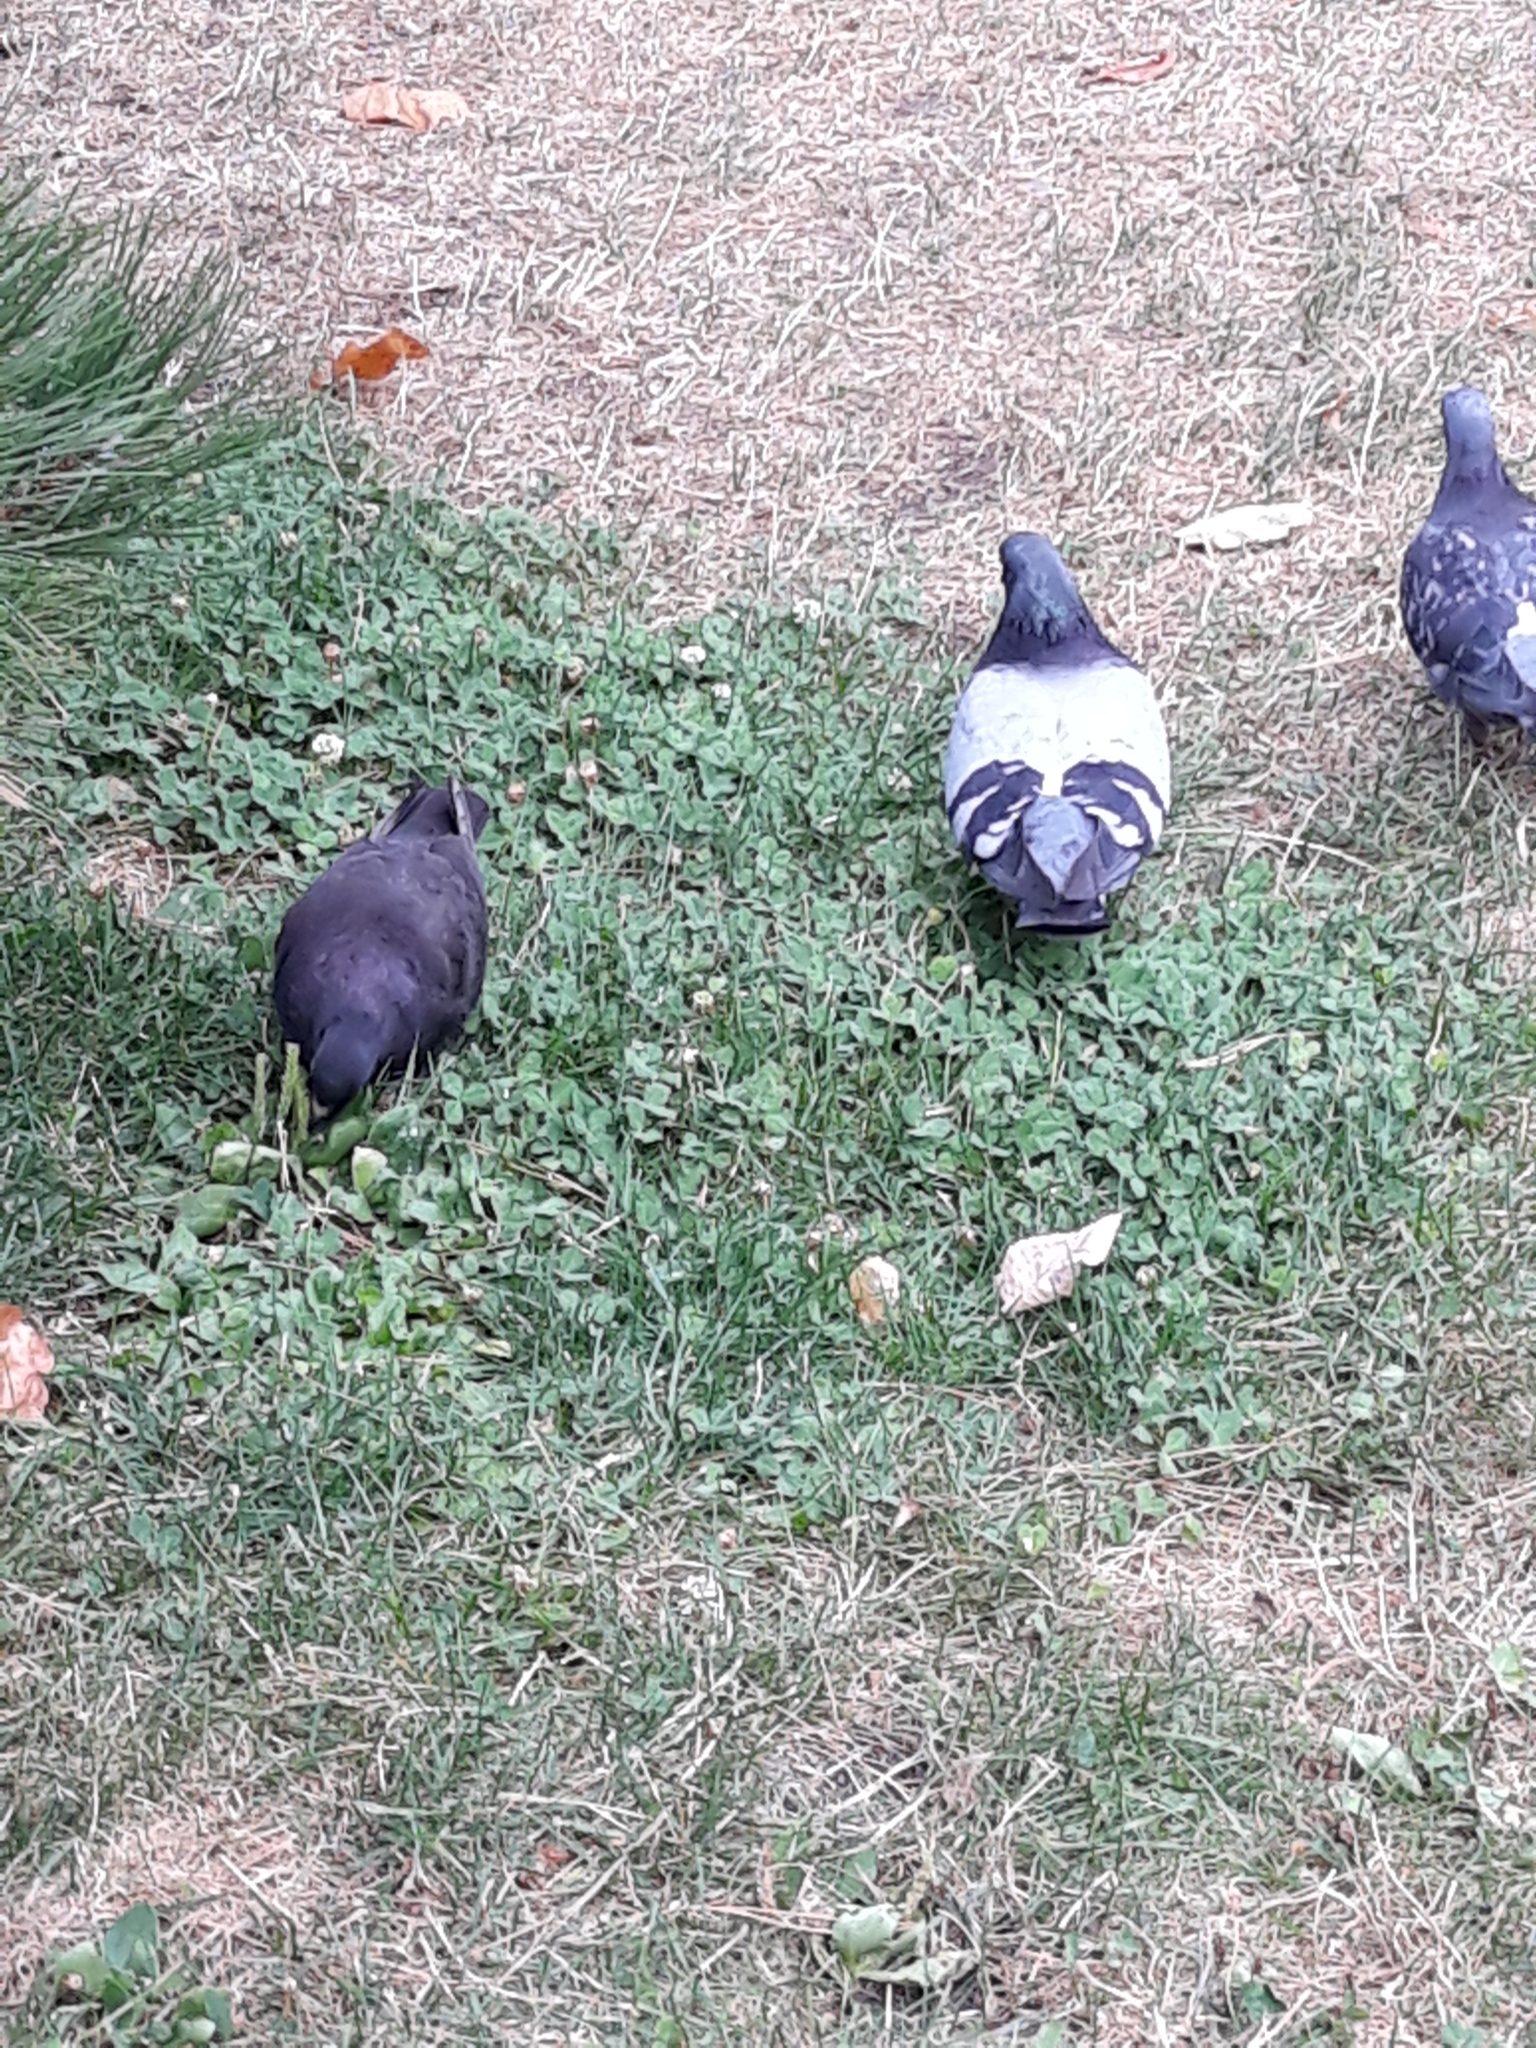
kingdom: Animalia
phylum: Chordata
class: Aves
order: Columbiformes
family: Columbidae
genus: Columba
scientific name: Columba livia
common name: Rock pigeon
